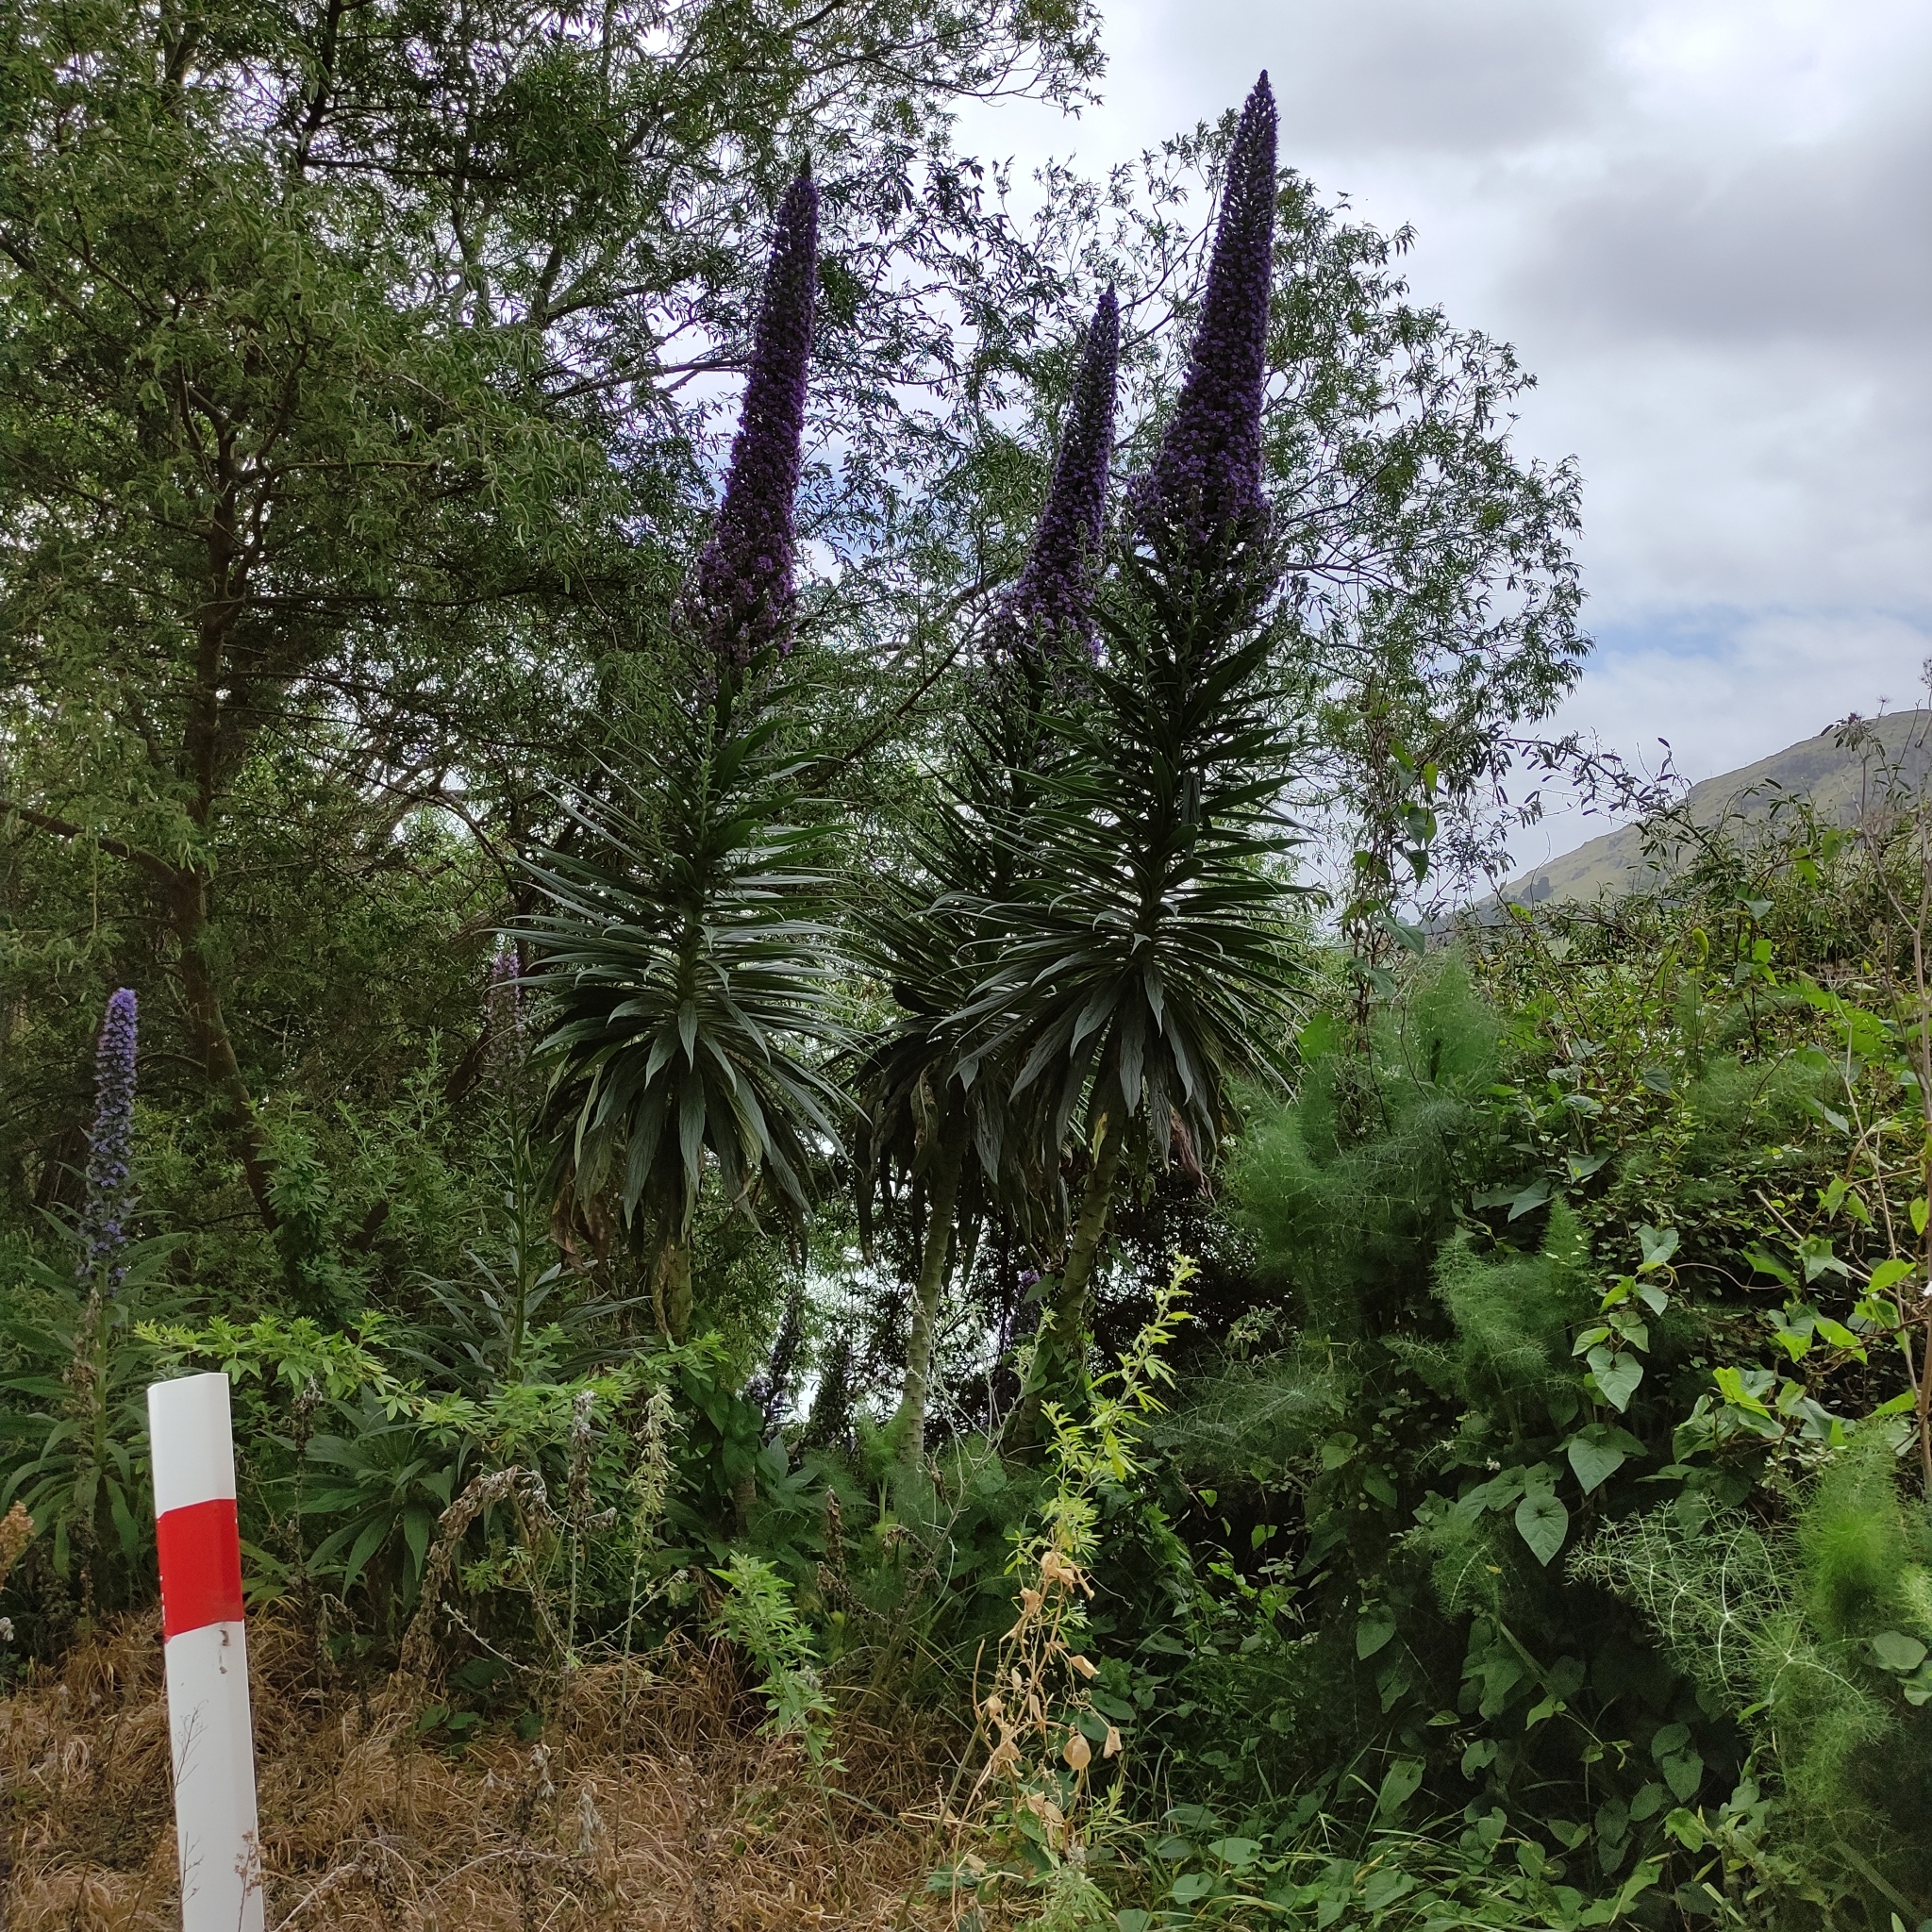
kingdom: Plantae
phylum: Tracheophyta
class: Magnoliopsida
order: Boraginales
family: Boraginaceae
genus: Echium
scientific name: Echium pininana
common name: Giant viper's-bugloss
